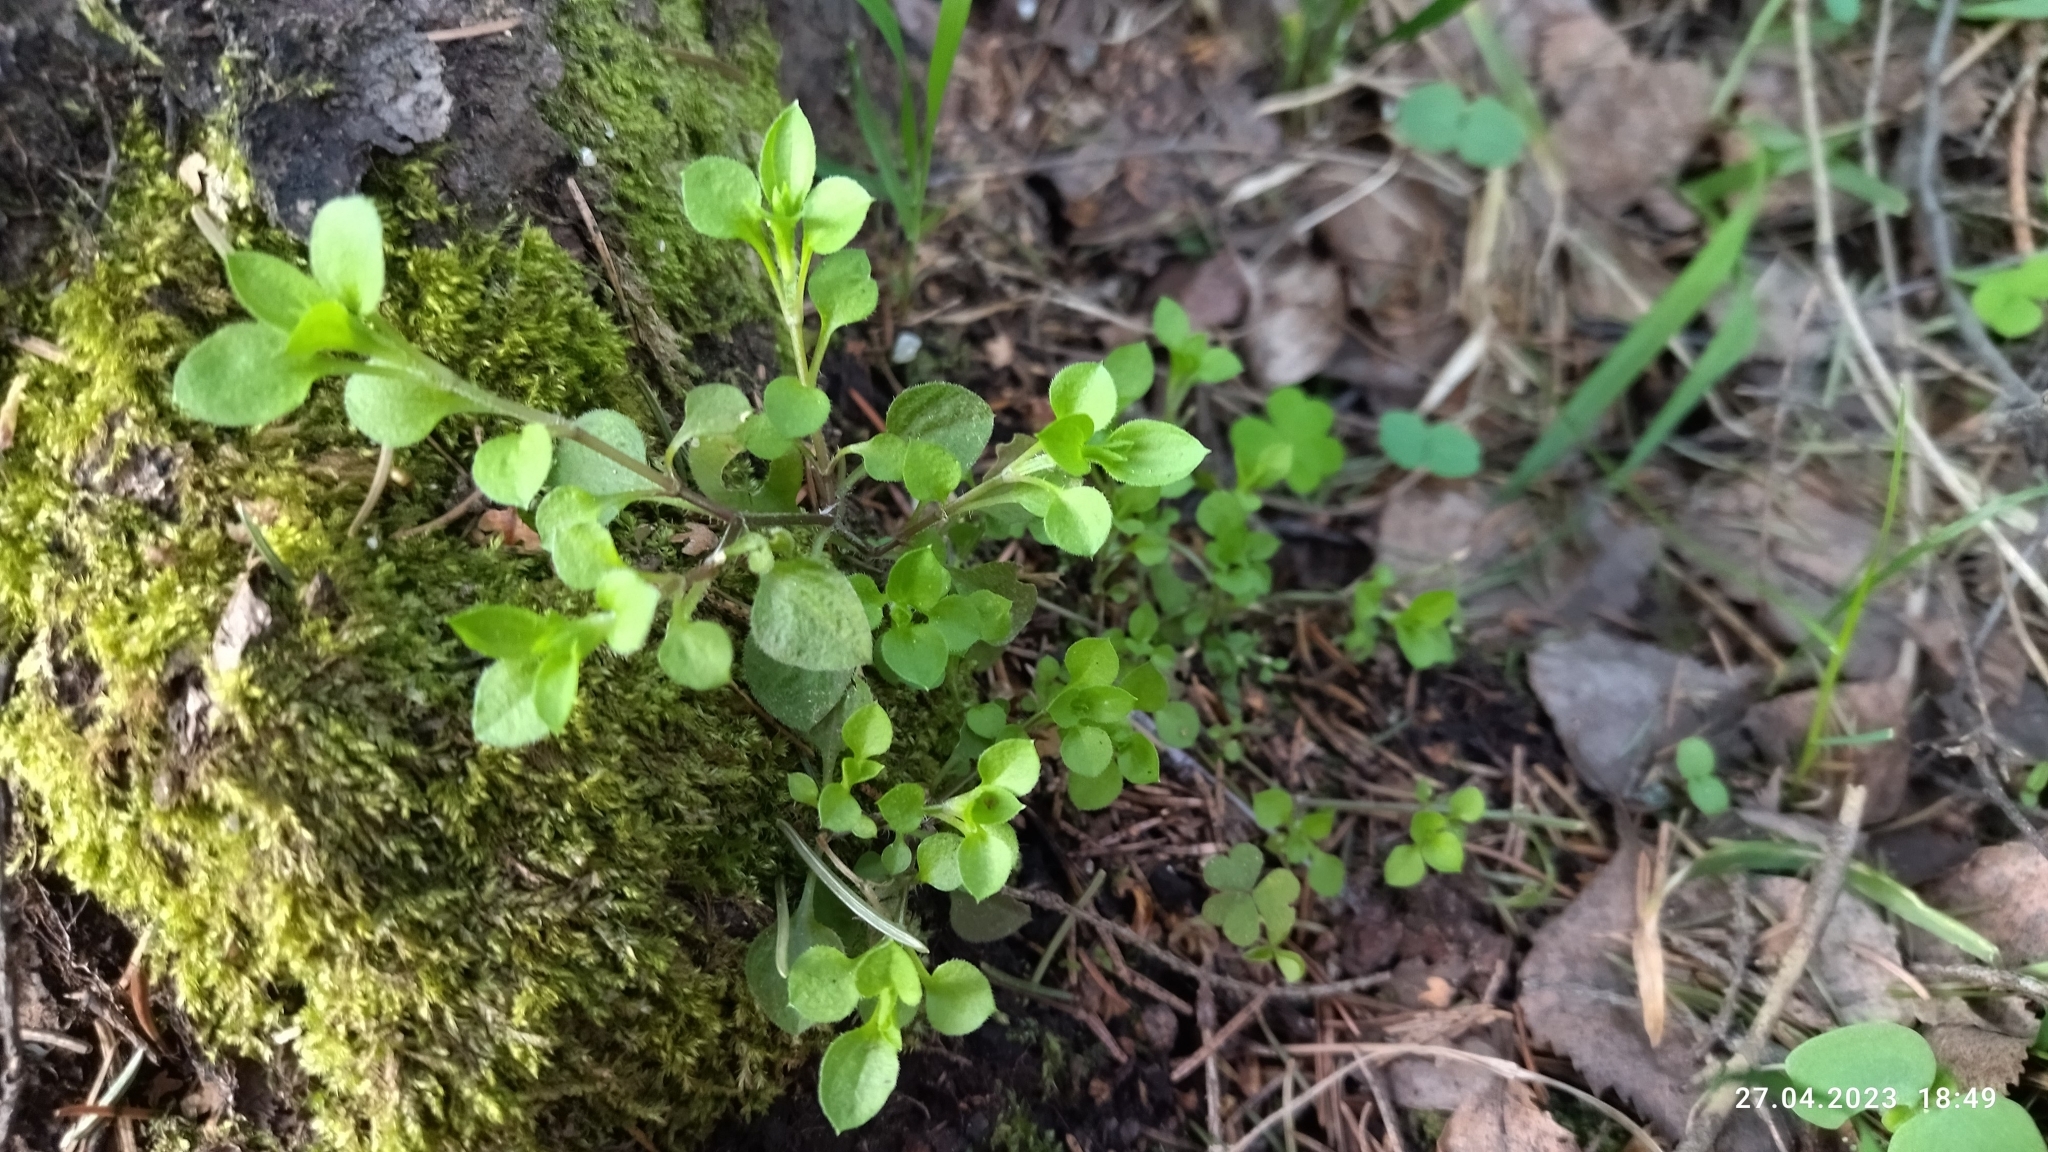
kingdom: Plantae
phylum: Tracheophyta
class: Magnoliopsida
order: Caryophyllales
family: Caryophyllaceae
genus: Moehringia
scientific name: Moehringia trinervia
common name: Three-nerved sandwort
